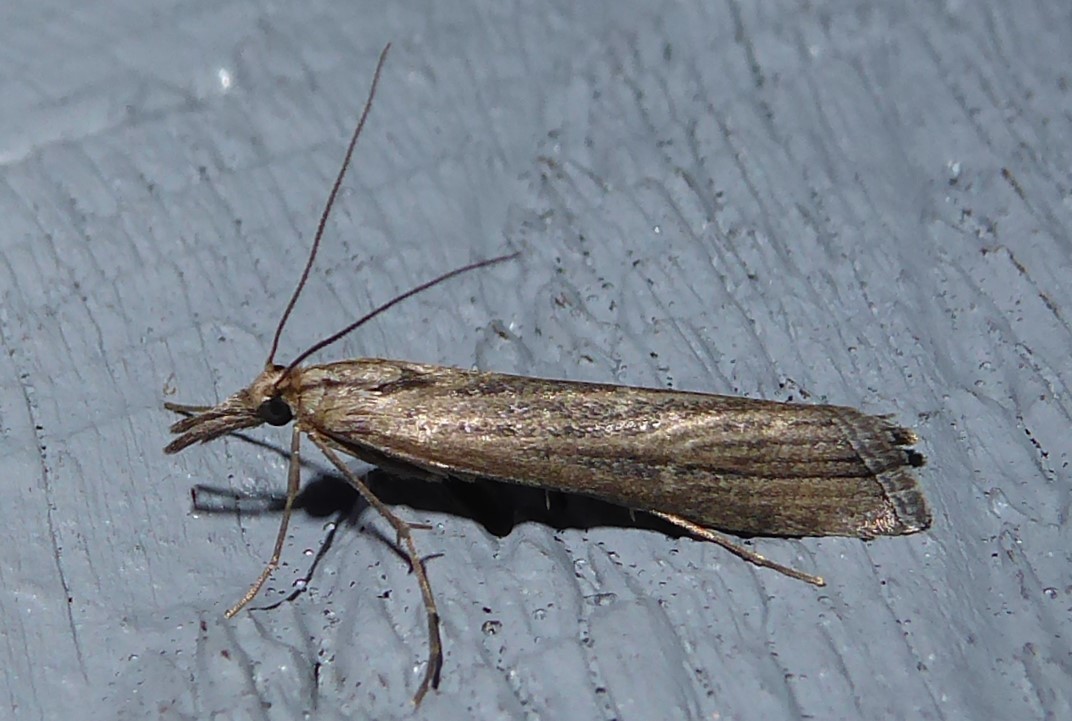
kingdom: Animalia
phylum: Arthropoda
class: Insecta
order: Lepidoptera
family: Crambidae
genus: Orocrambus
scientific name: Orocrambus cyclopicus
